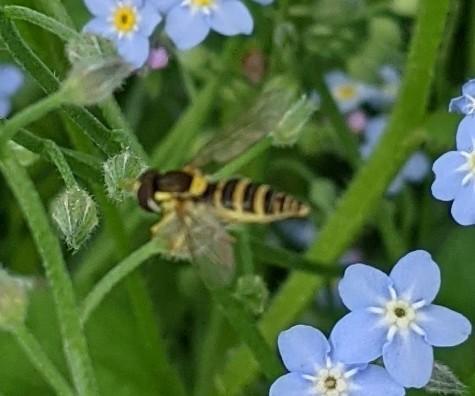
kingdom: Animalia
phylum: Arthropoda
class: Insecta
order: Diptera
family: Syrphidae
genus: Sphaerophoria
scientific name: Sphaerophoria
